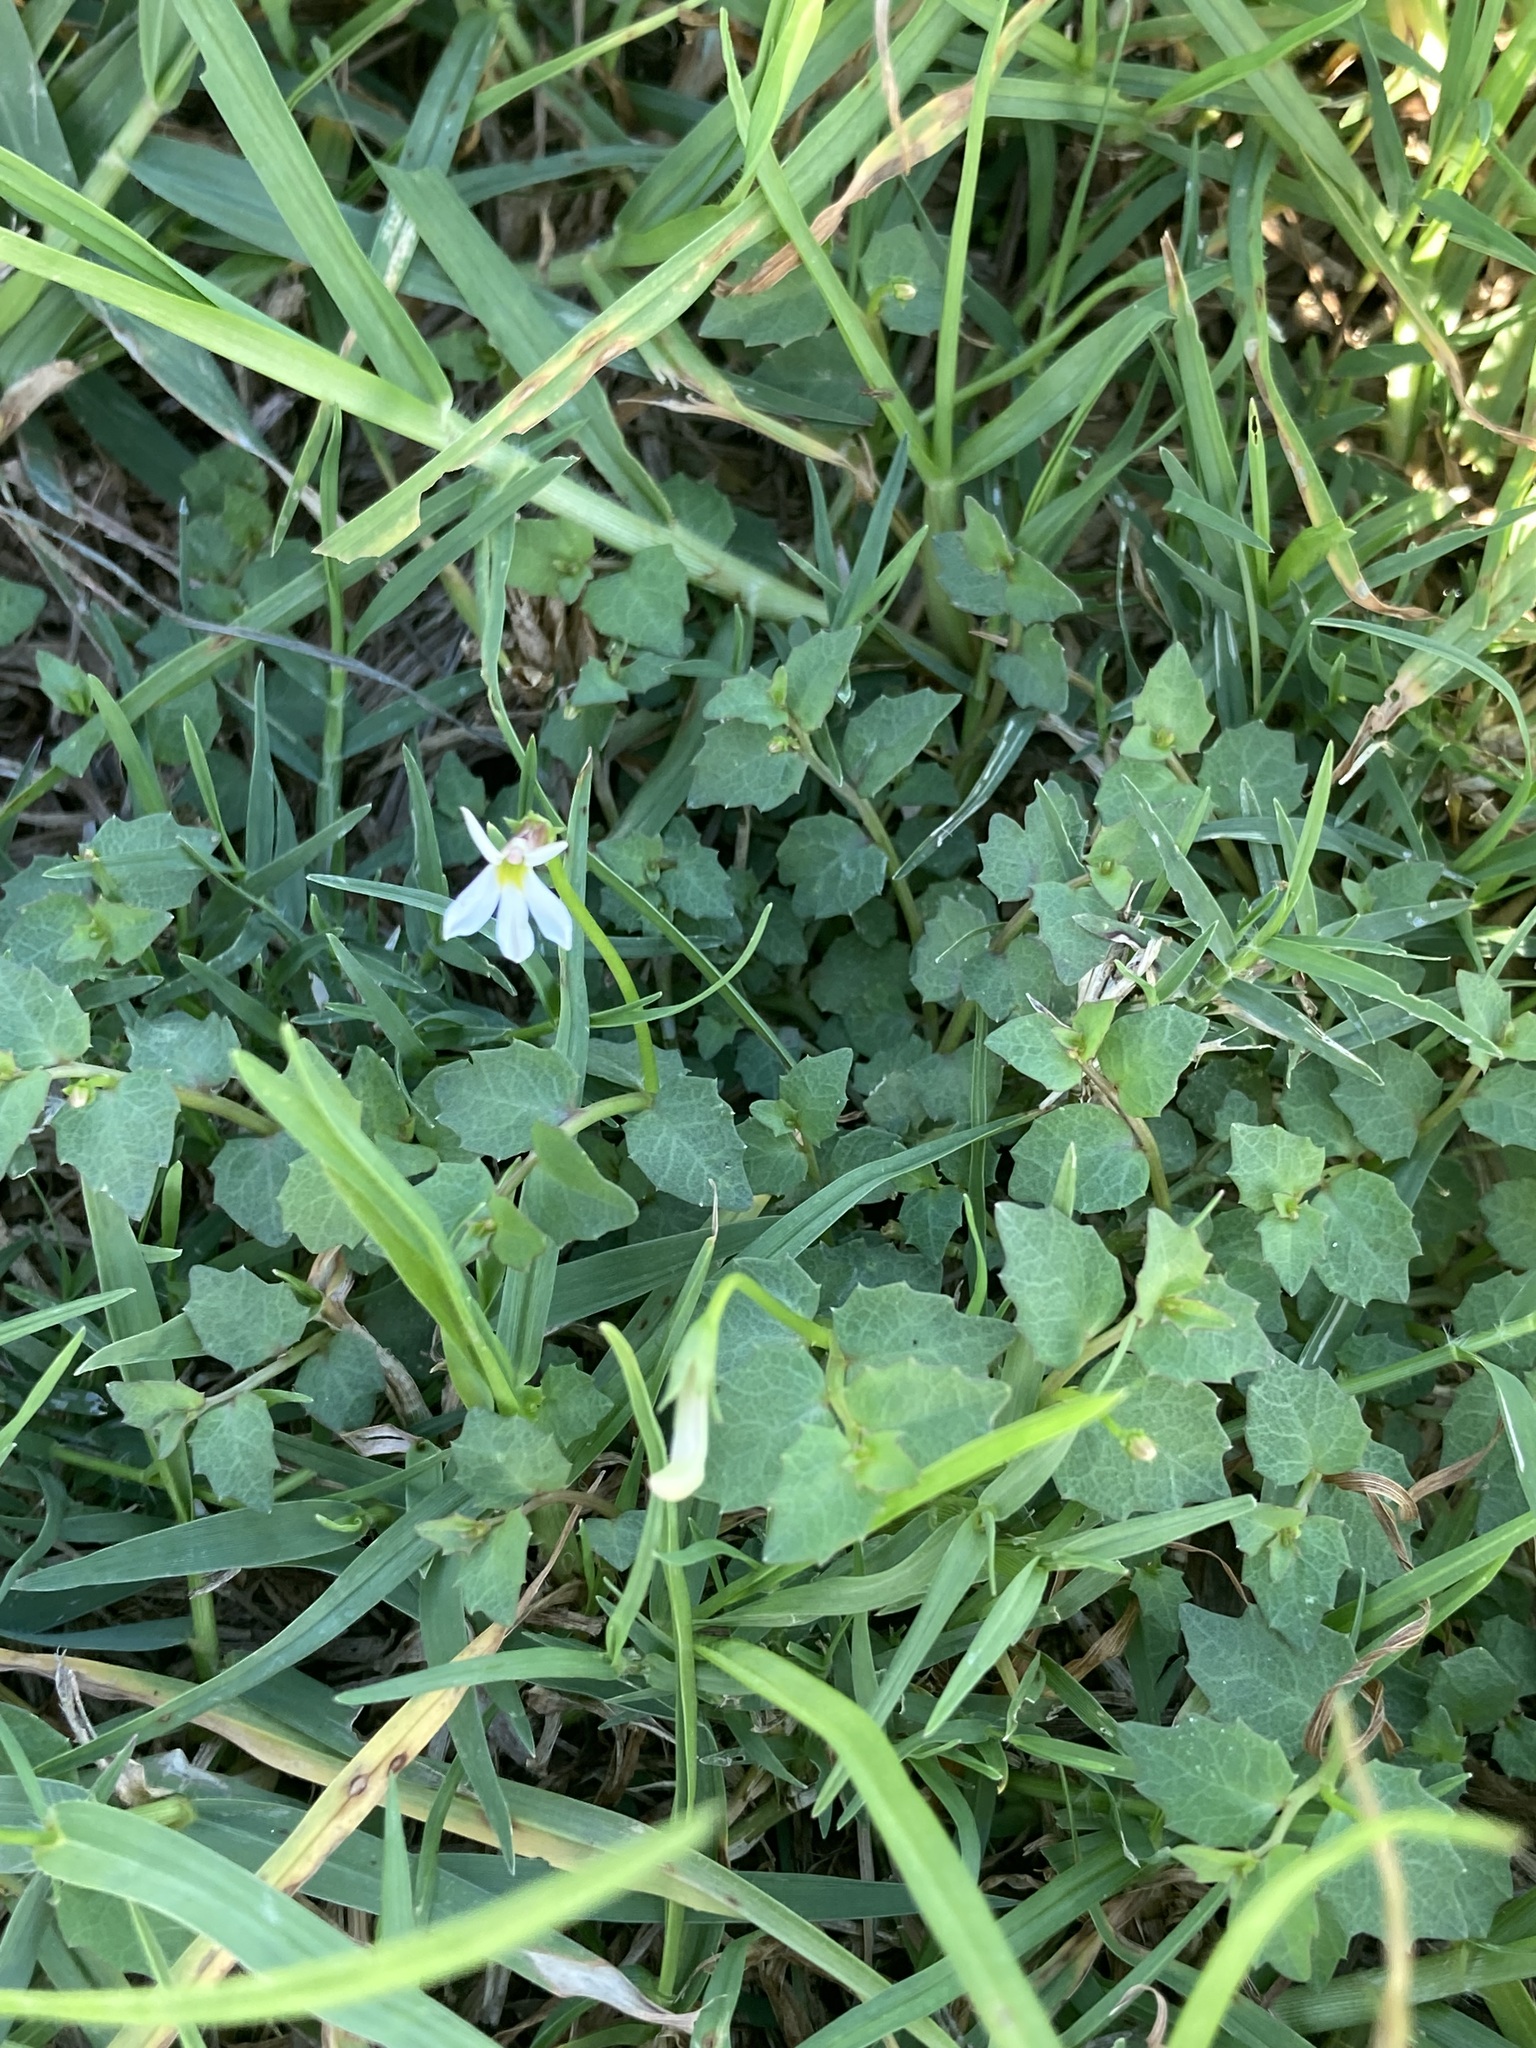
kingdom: Plantae
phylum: Tracheophyta
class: Magnoliopsida
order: Asterales
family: Campanulaceae
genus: Lobelia
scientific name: Lobelia purpurascens
